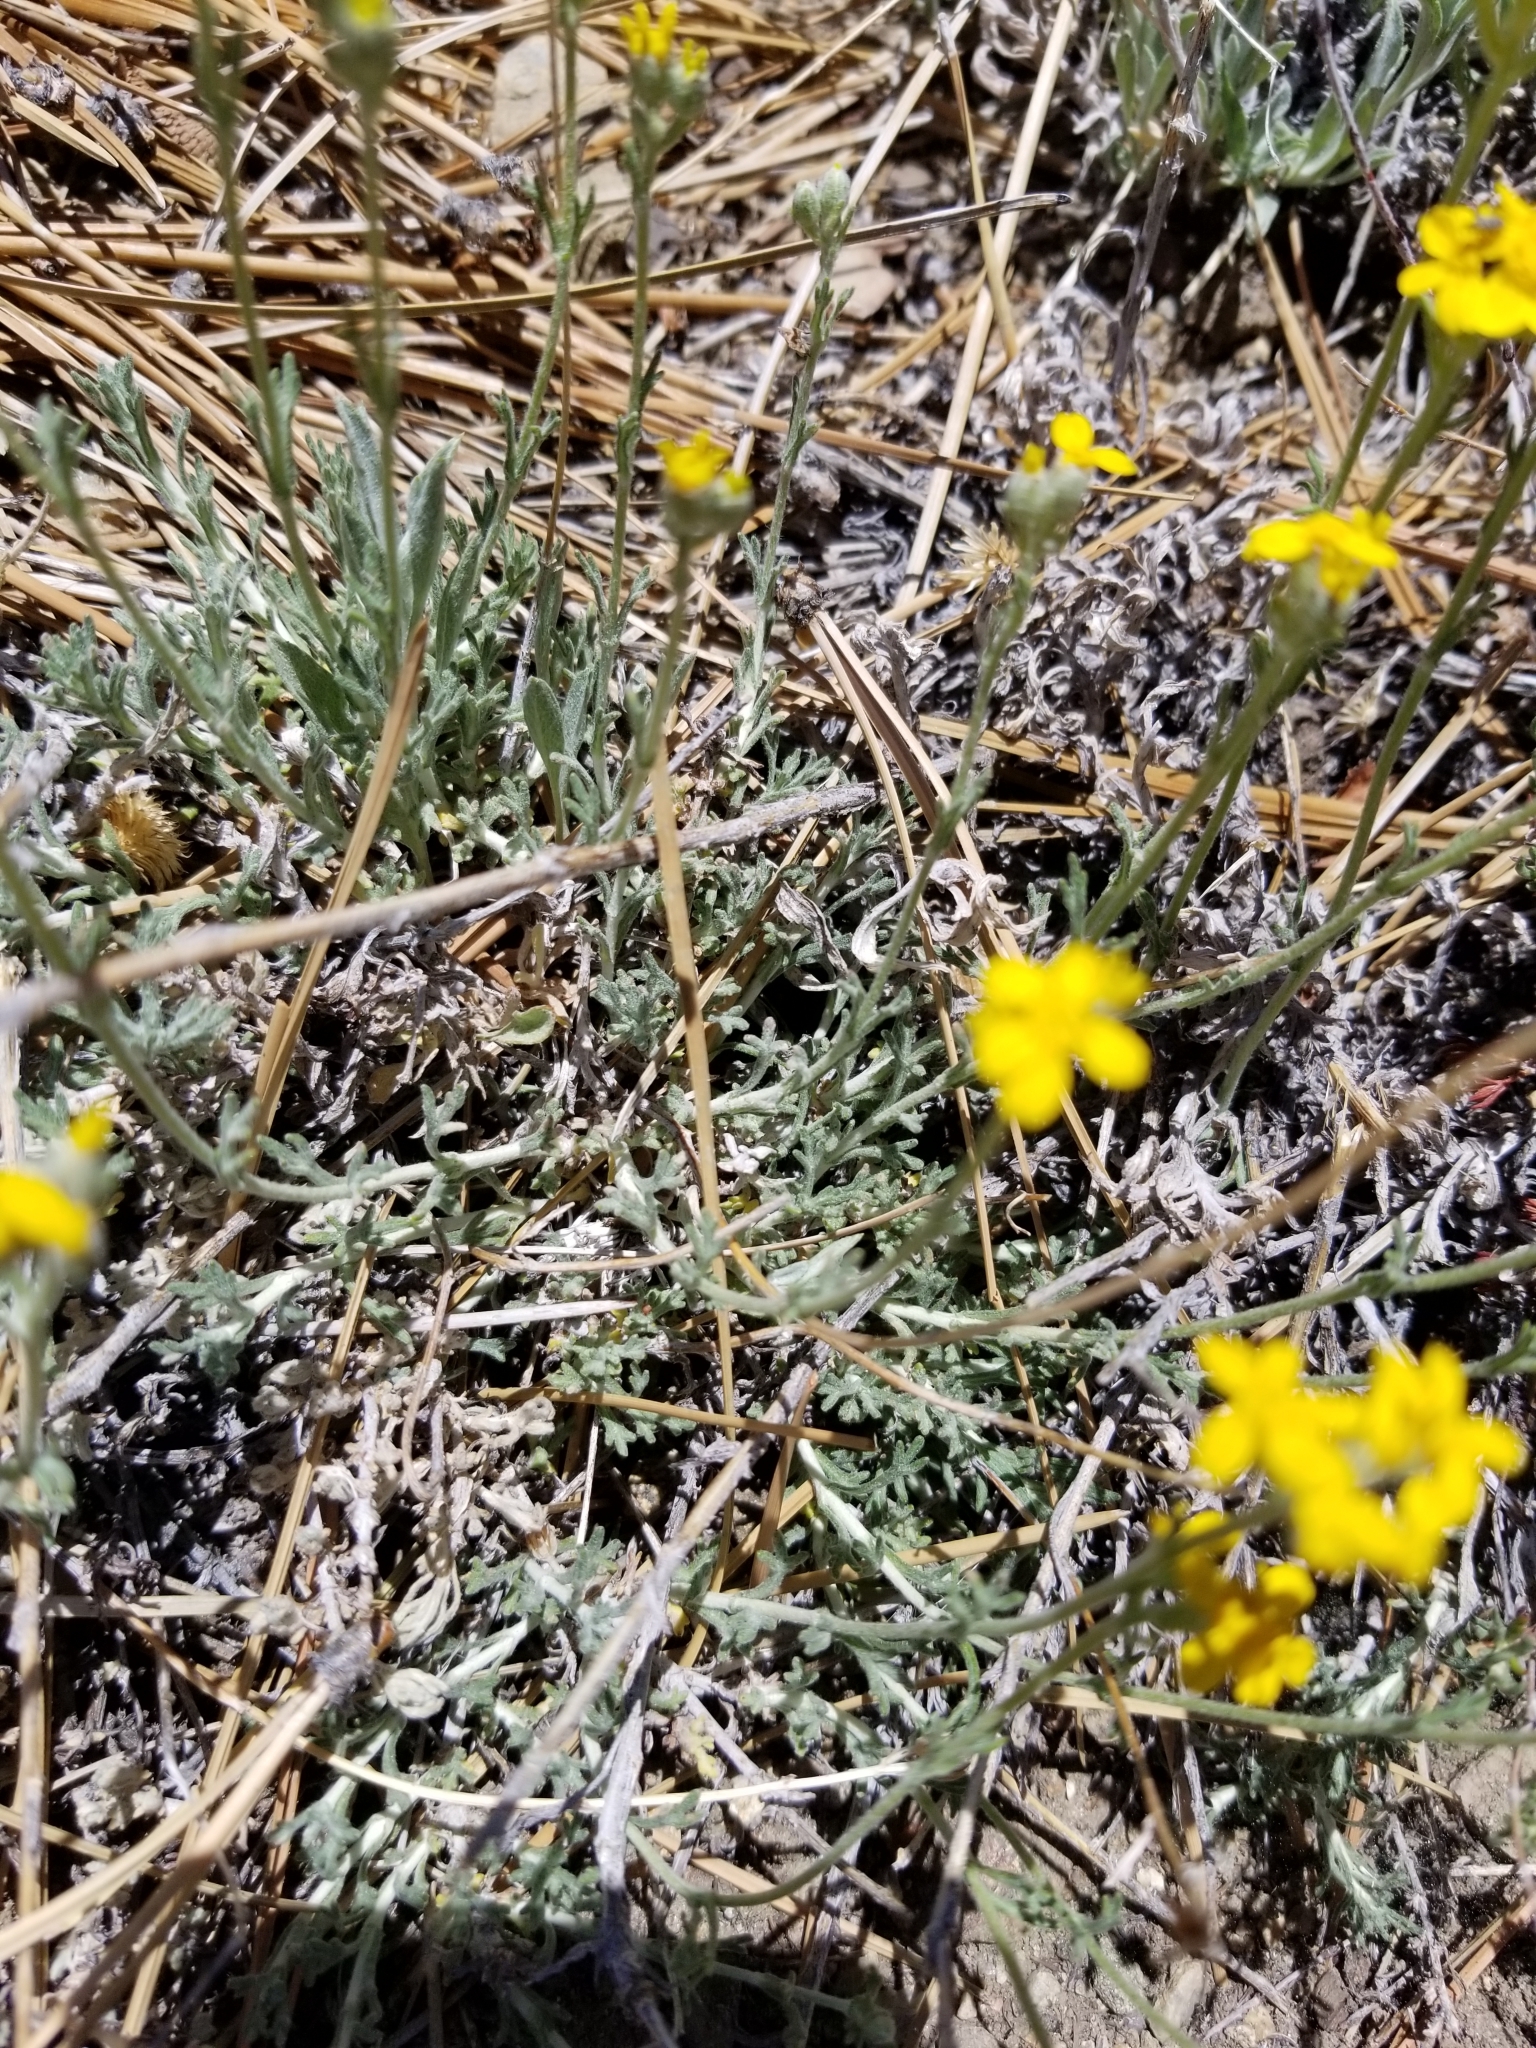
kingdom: Plantae
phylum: Tracheophyta
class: Magnoliopsida
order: Asterales
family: Asteraceae
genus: Eriophyllum
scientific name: Eriophyllum confertiflorum
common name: Golden-yarrow
